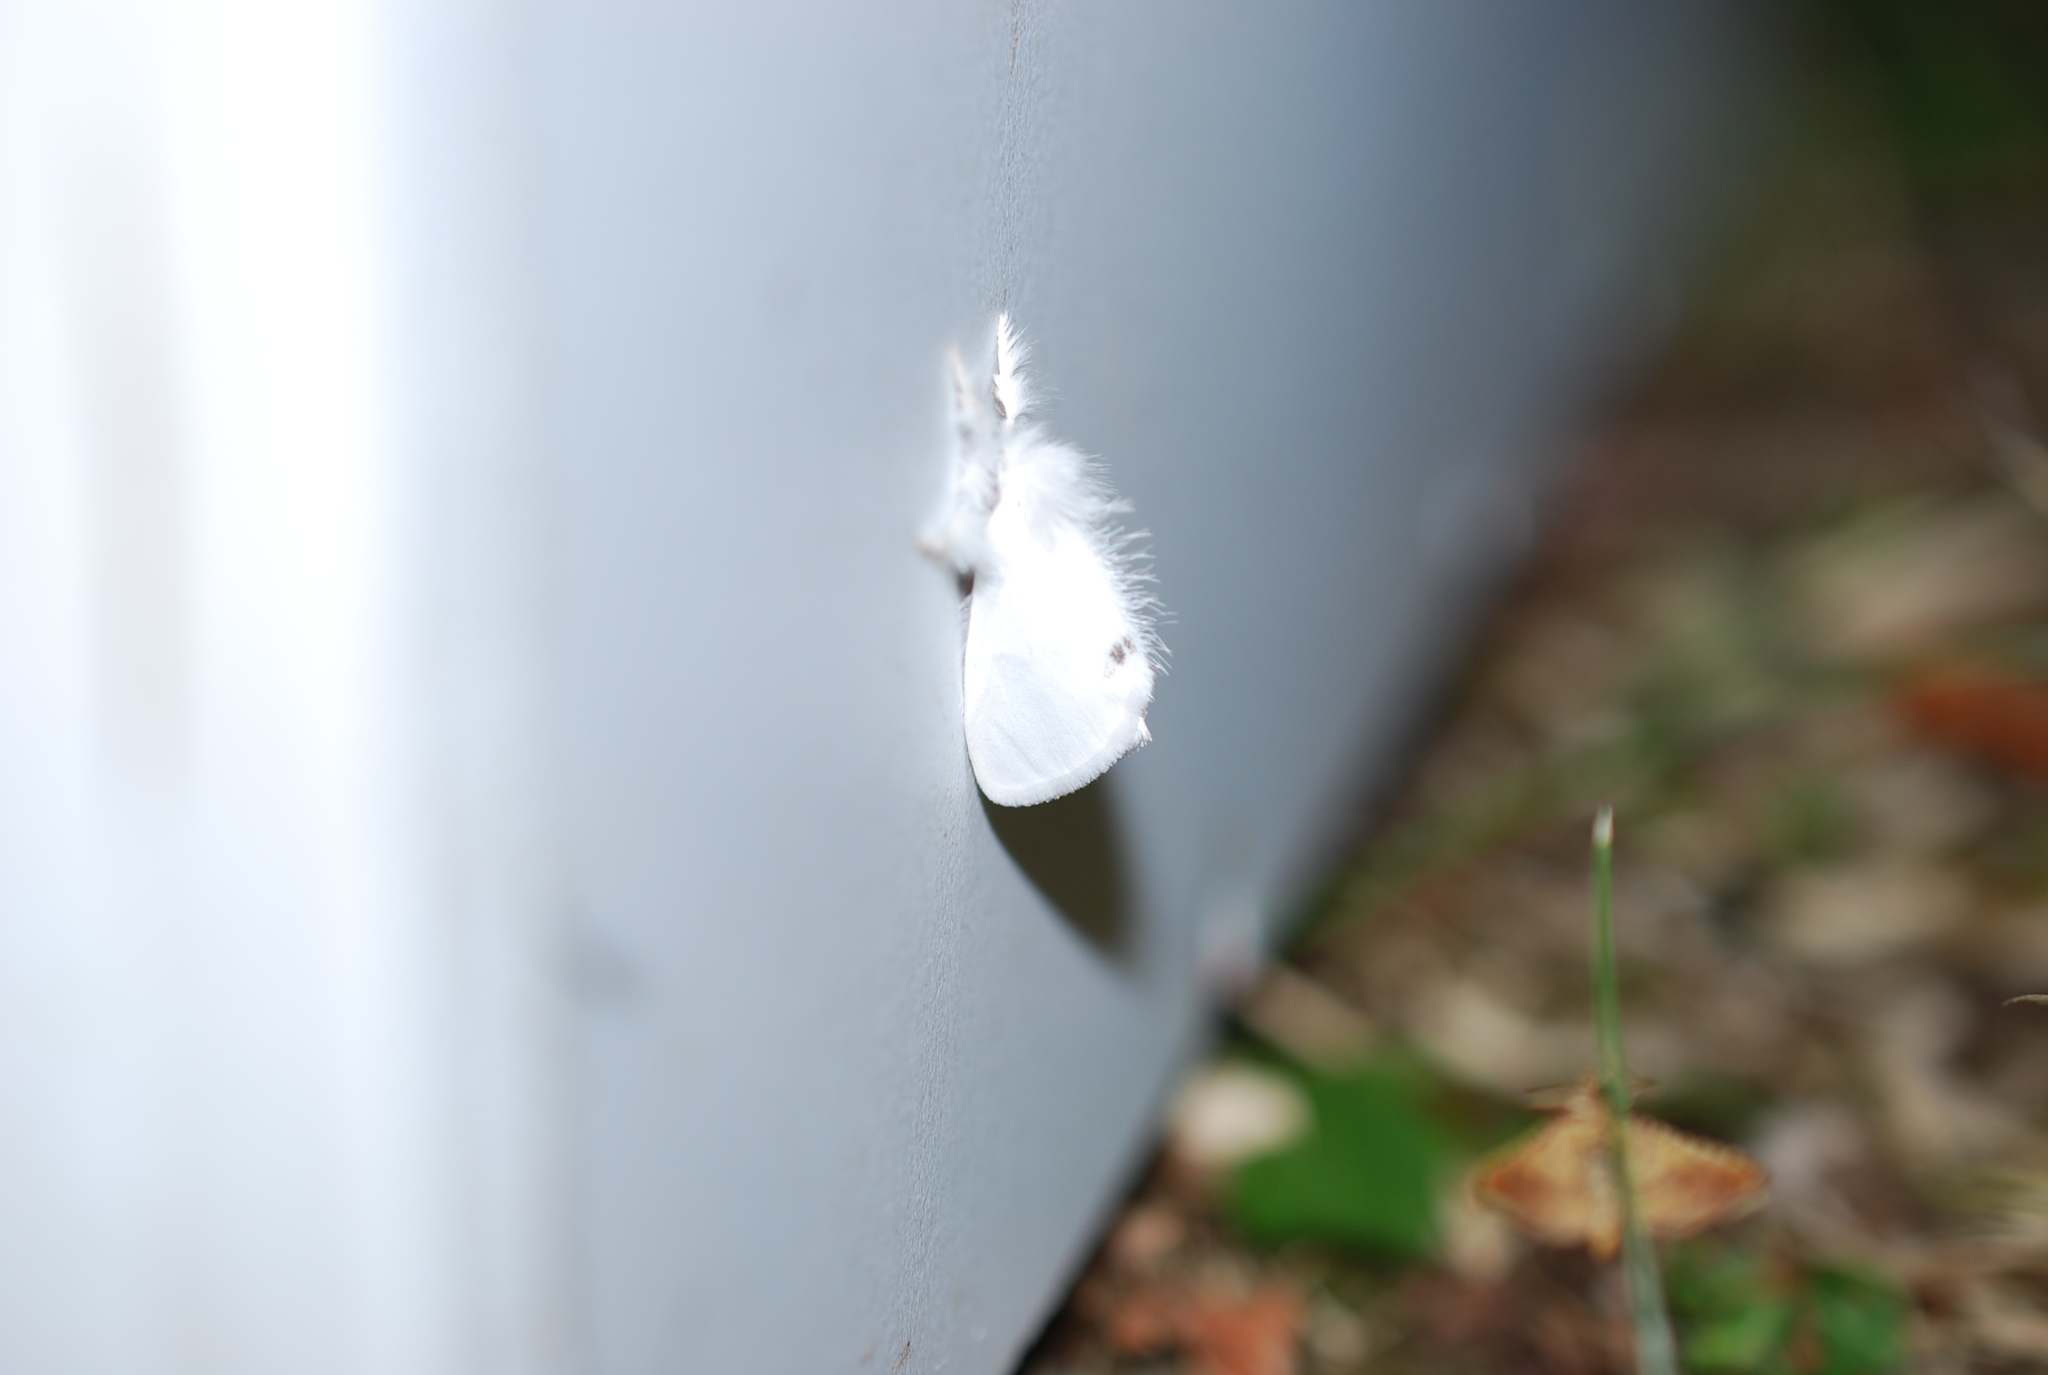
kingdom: Animalia
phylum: Arthropoda
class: Insecta
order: Lepidoptera
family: Erebidae
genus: Sphrageidus
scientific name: Sphrageidus similis
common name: Yellow-tail
